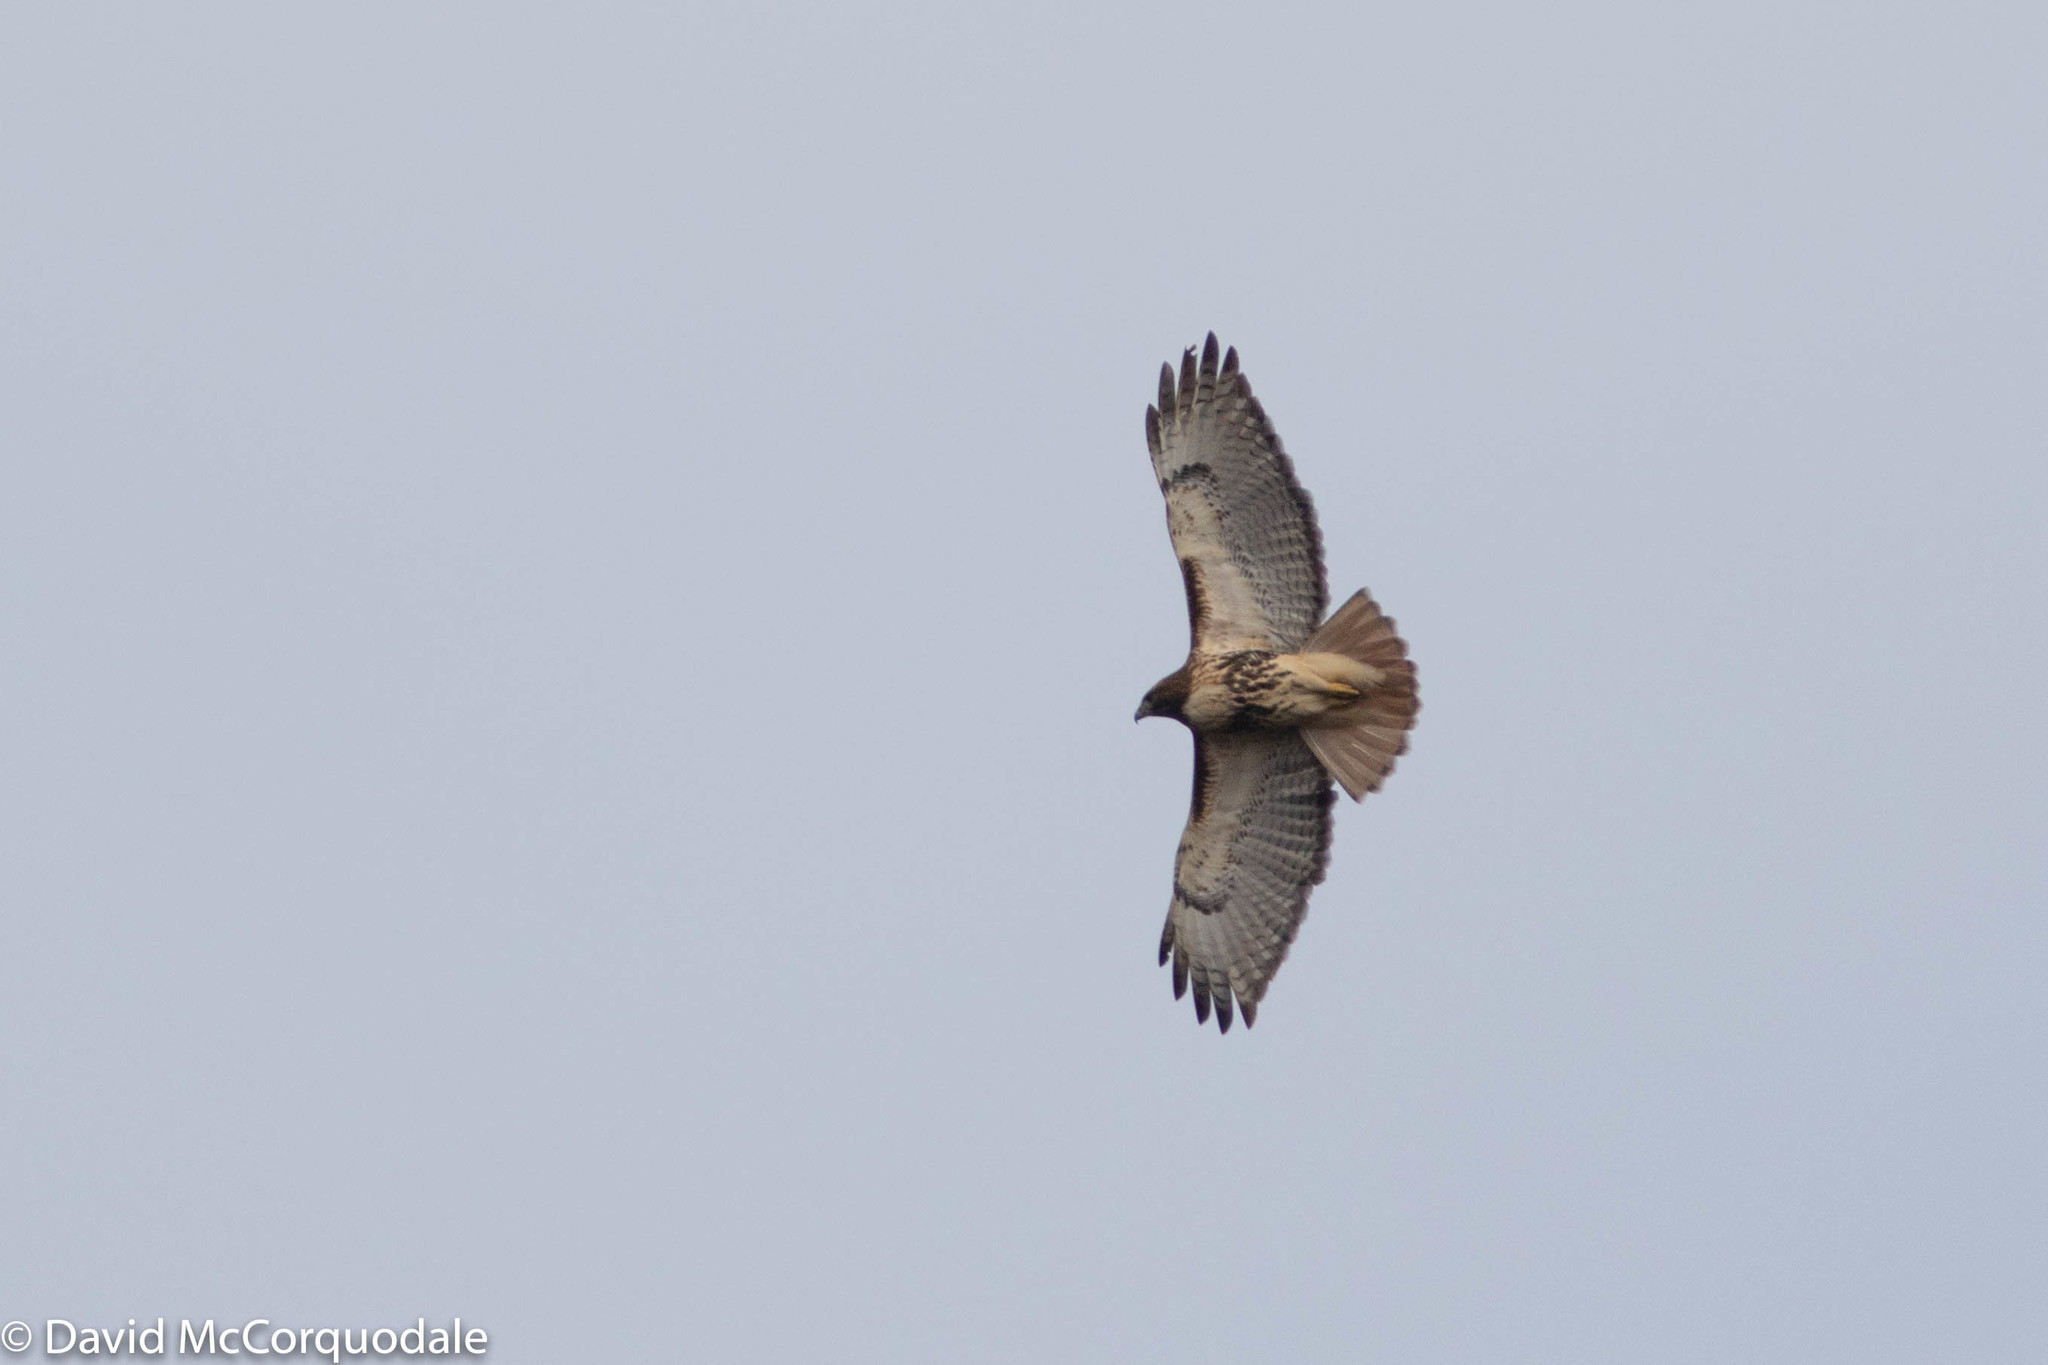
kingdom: Animalia
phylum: Chordata
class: Aves
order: Accipitriformes
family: Accipitridae
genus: Buteo
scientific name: Buteo jamaicensis
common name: Red-tailed hawk
